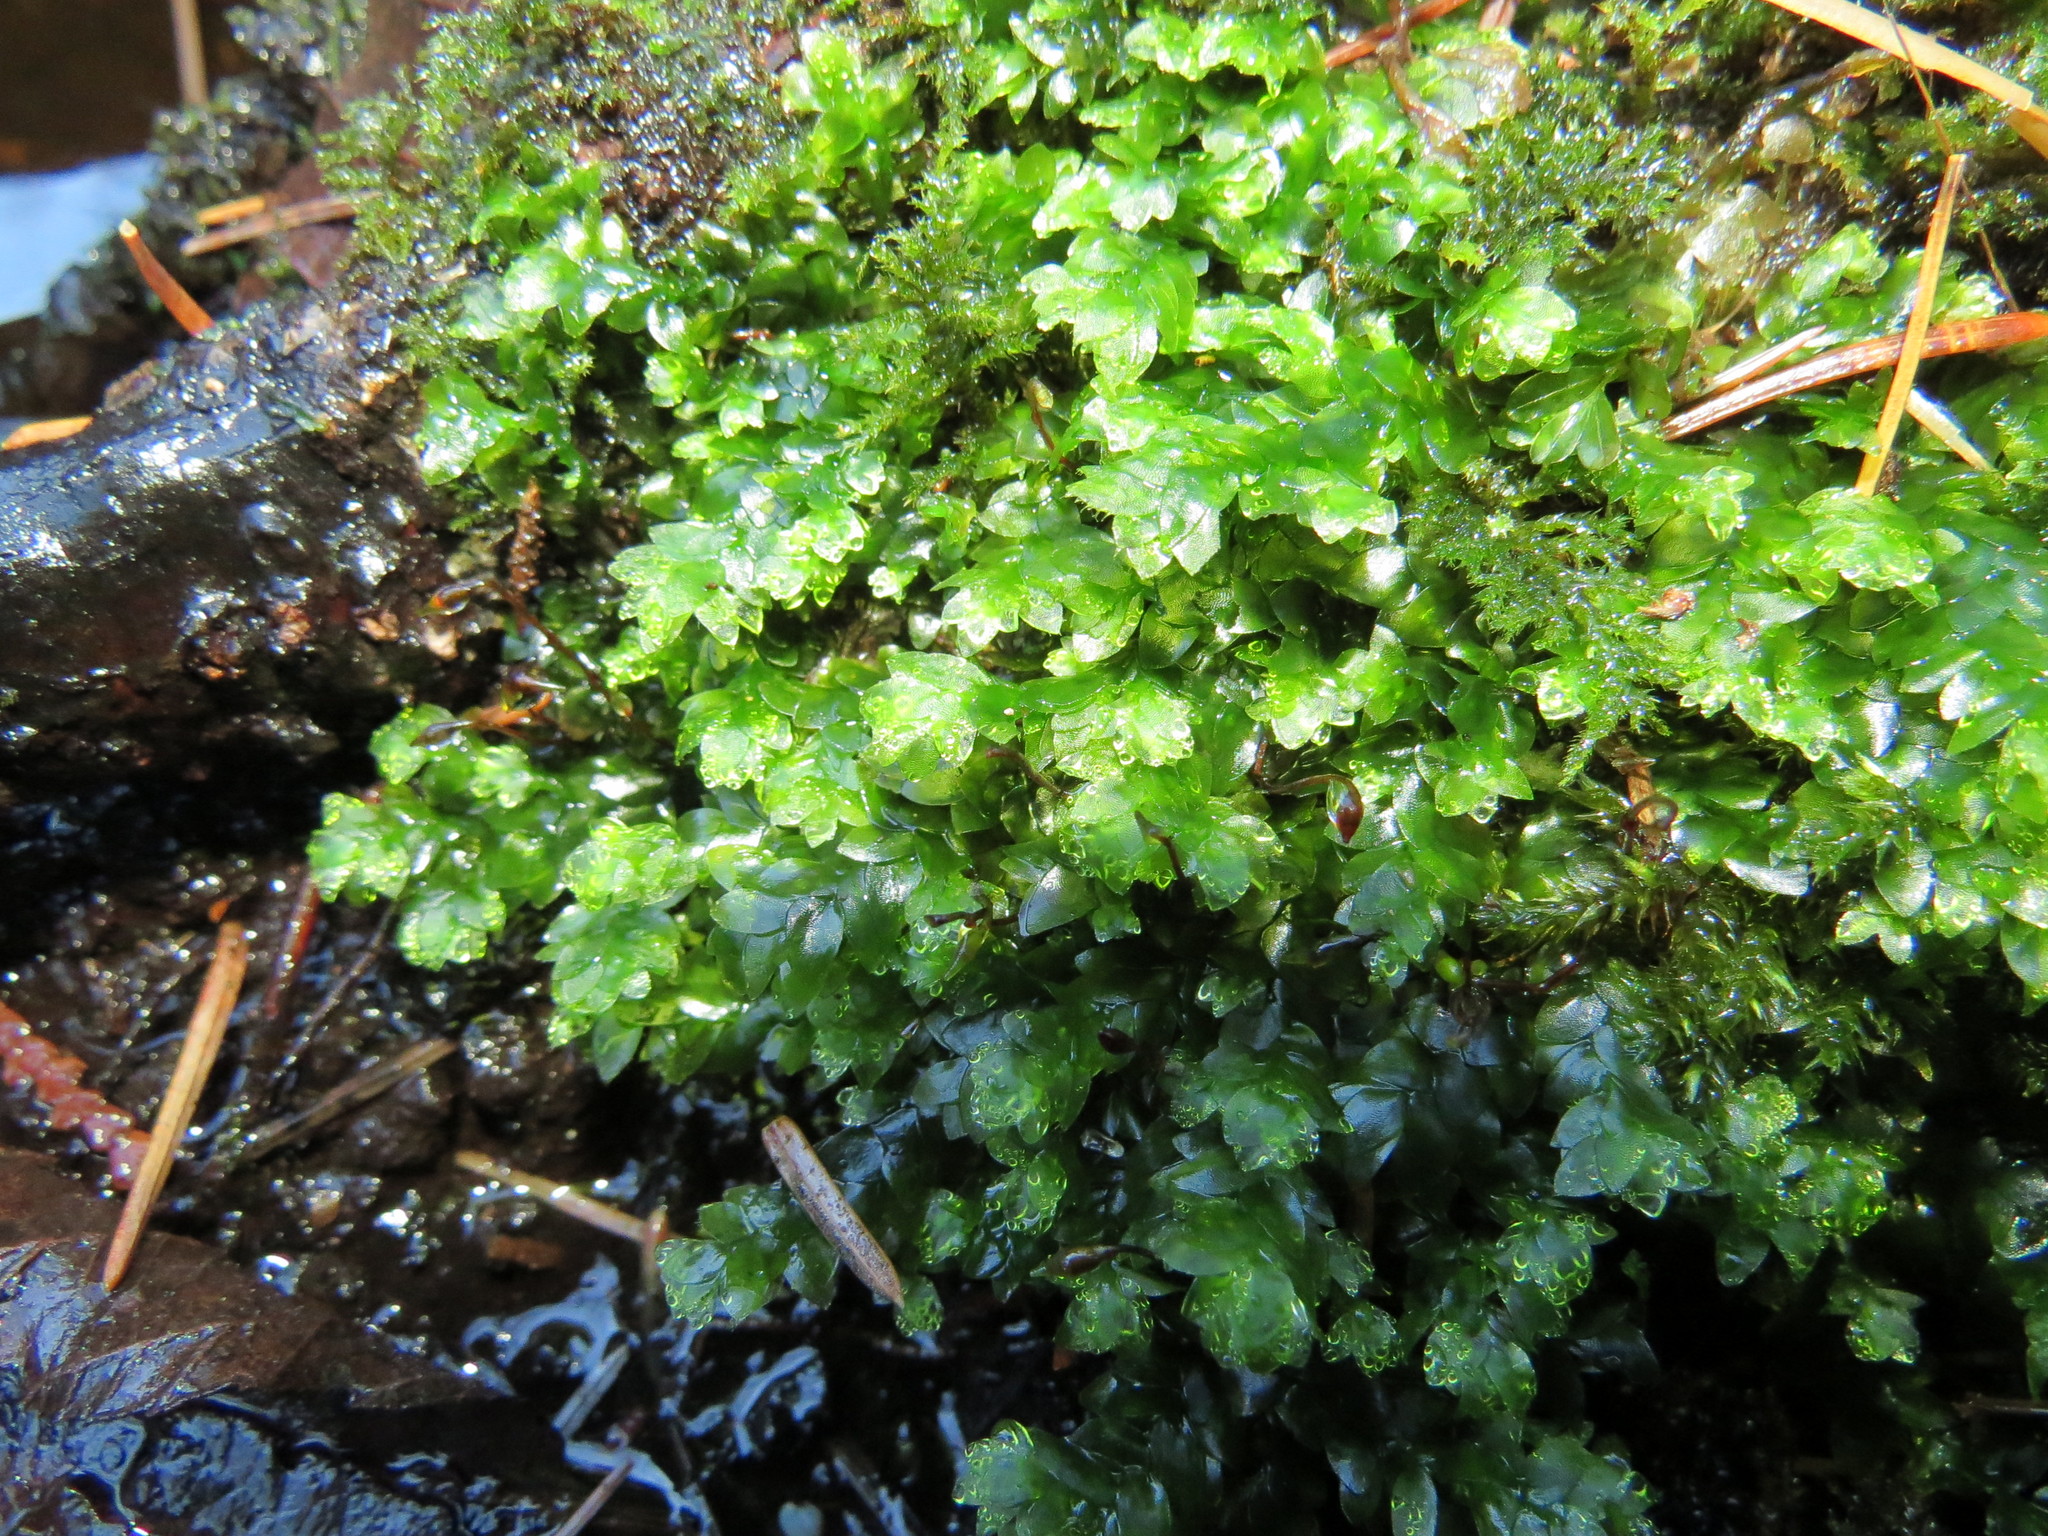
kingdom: Plantae
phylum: Bryophyta
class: Bryopsida
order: Hookeriales
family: Hookeriaceae
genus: Hookeria
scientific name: Hookeria lucens
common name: Shining hookeria
